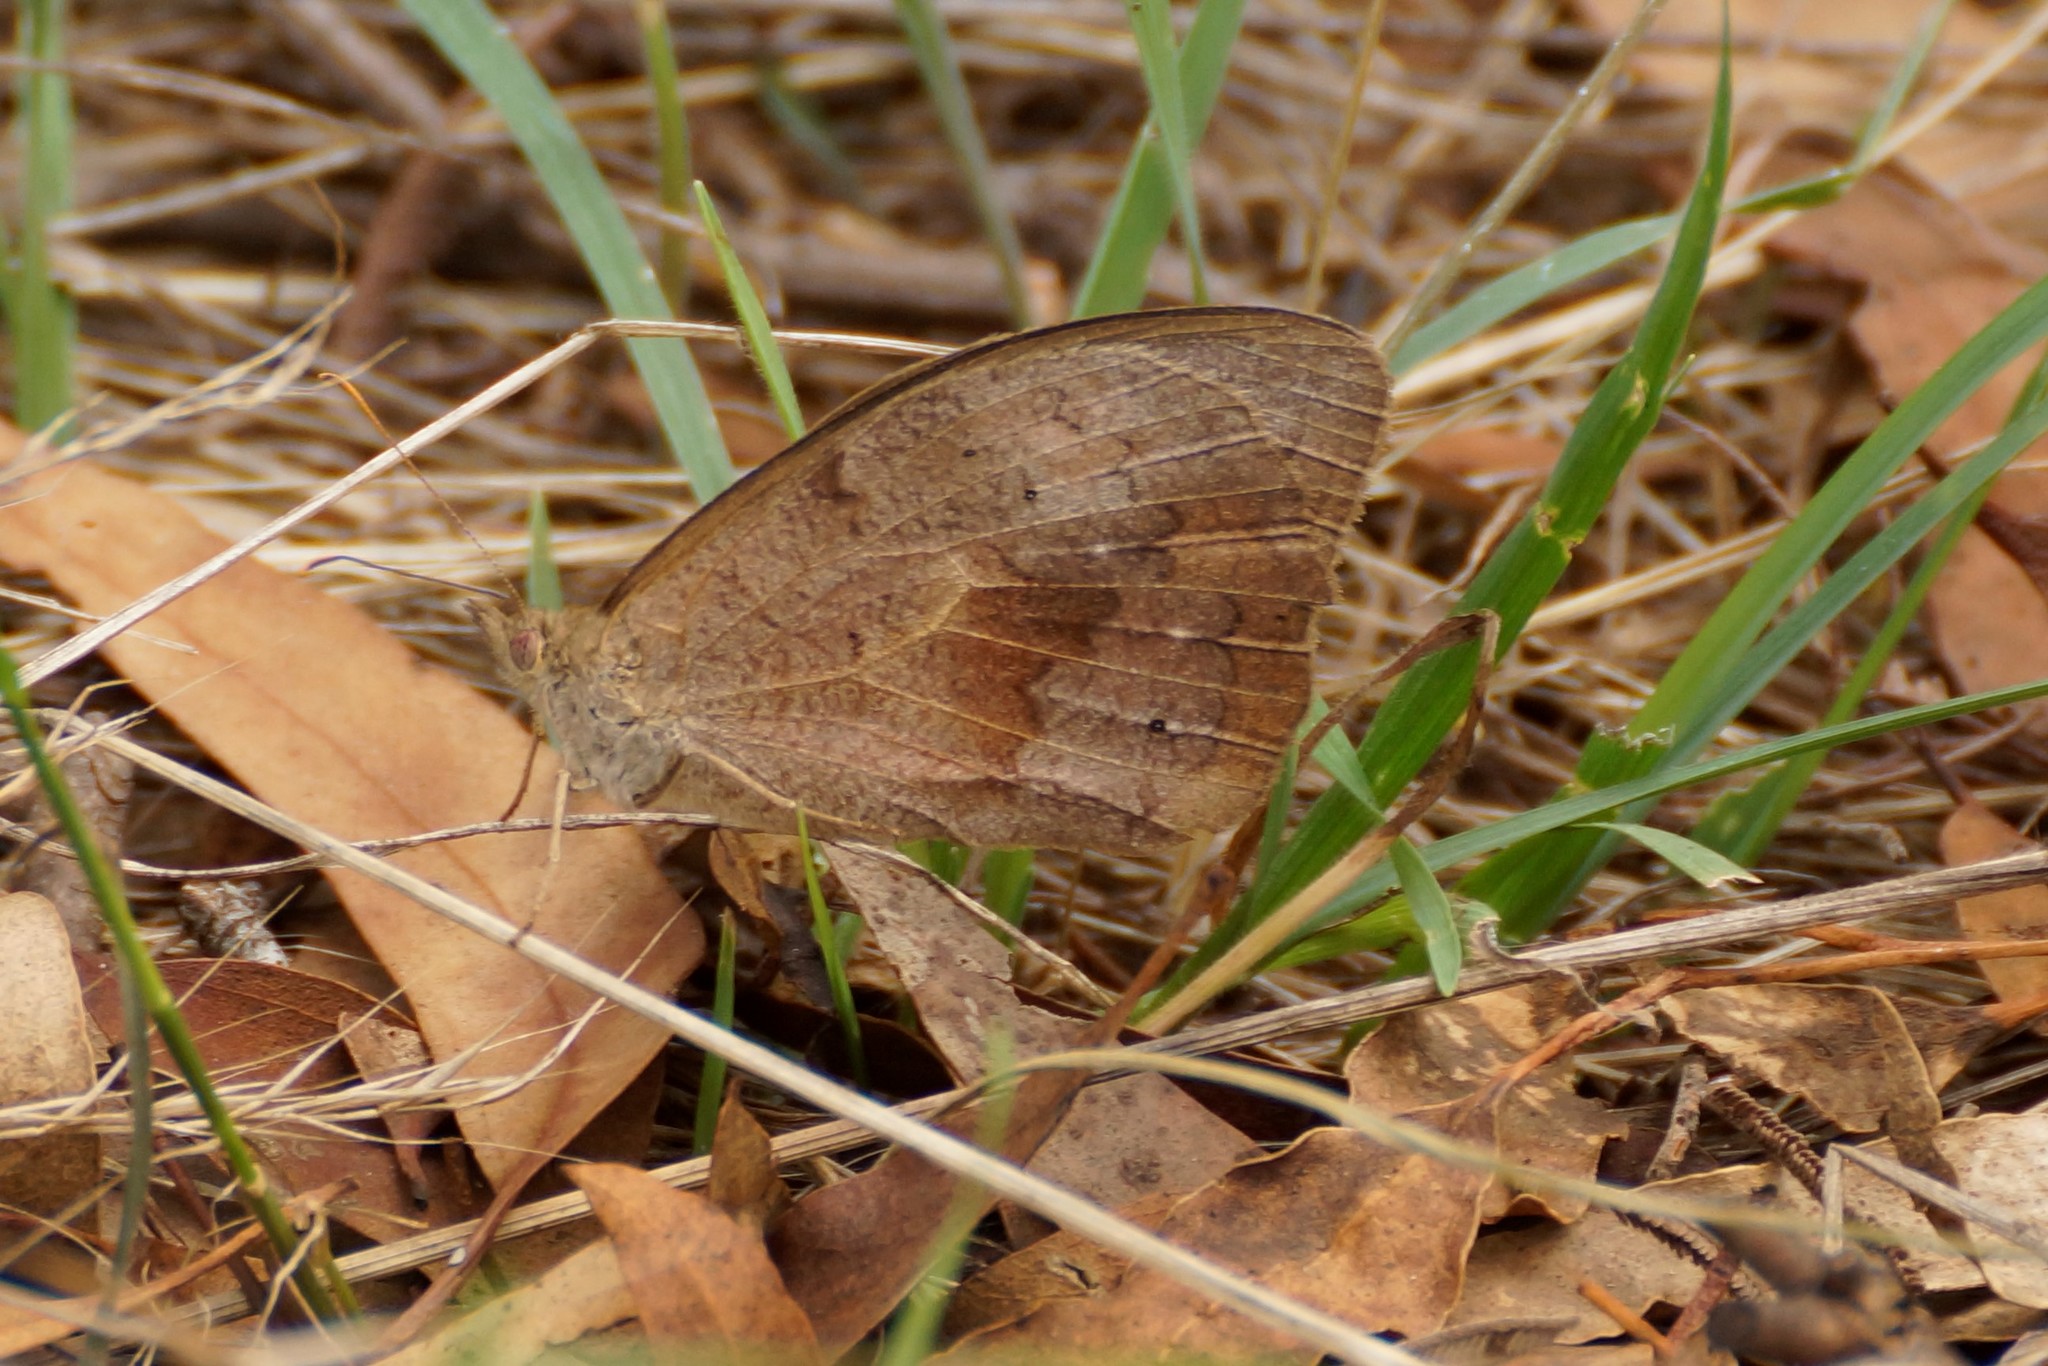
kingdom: Animalia
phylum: Arthropoda
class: Insecta
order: Lepidoptera
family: Nymphalidae
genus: Heteronympha
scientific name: Heteronympha merope
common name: Common brown
